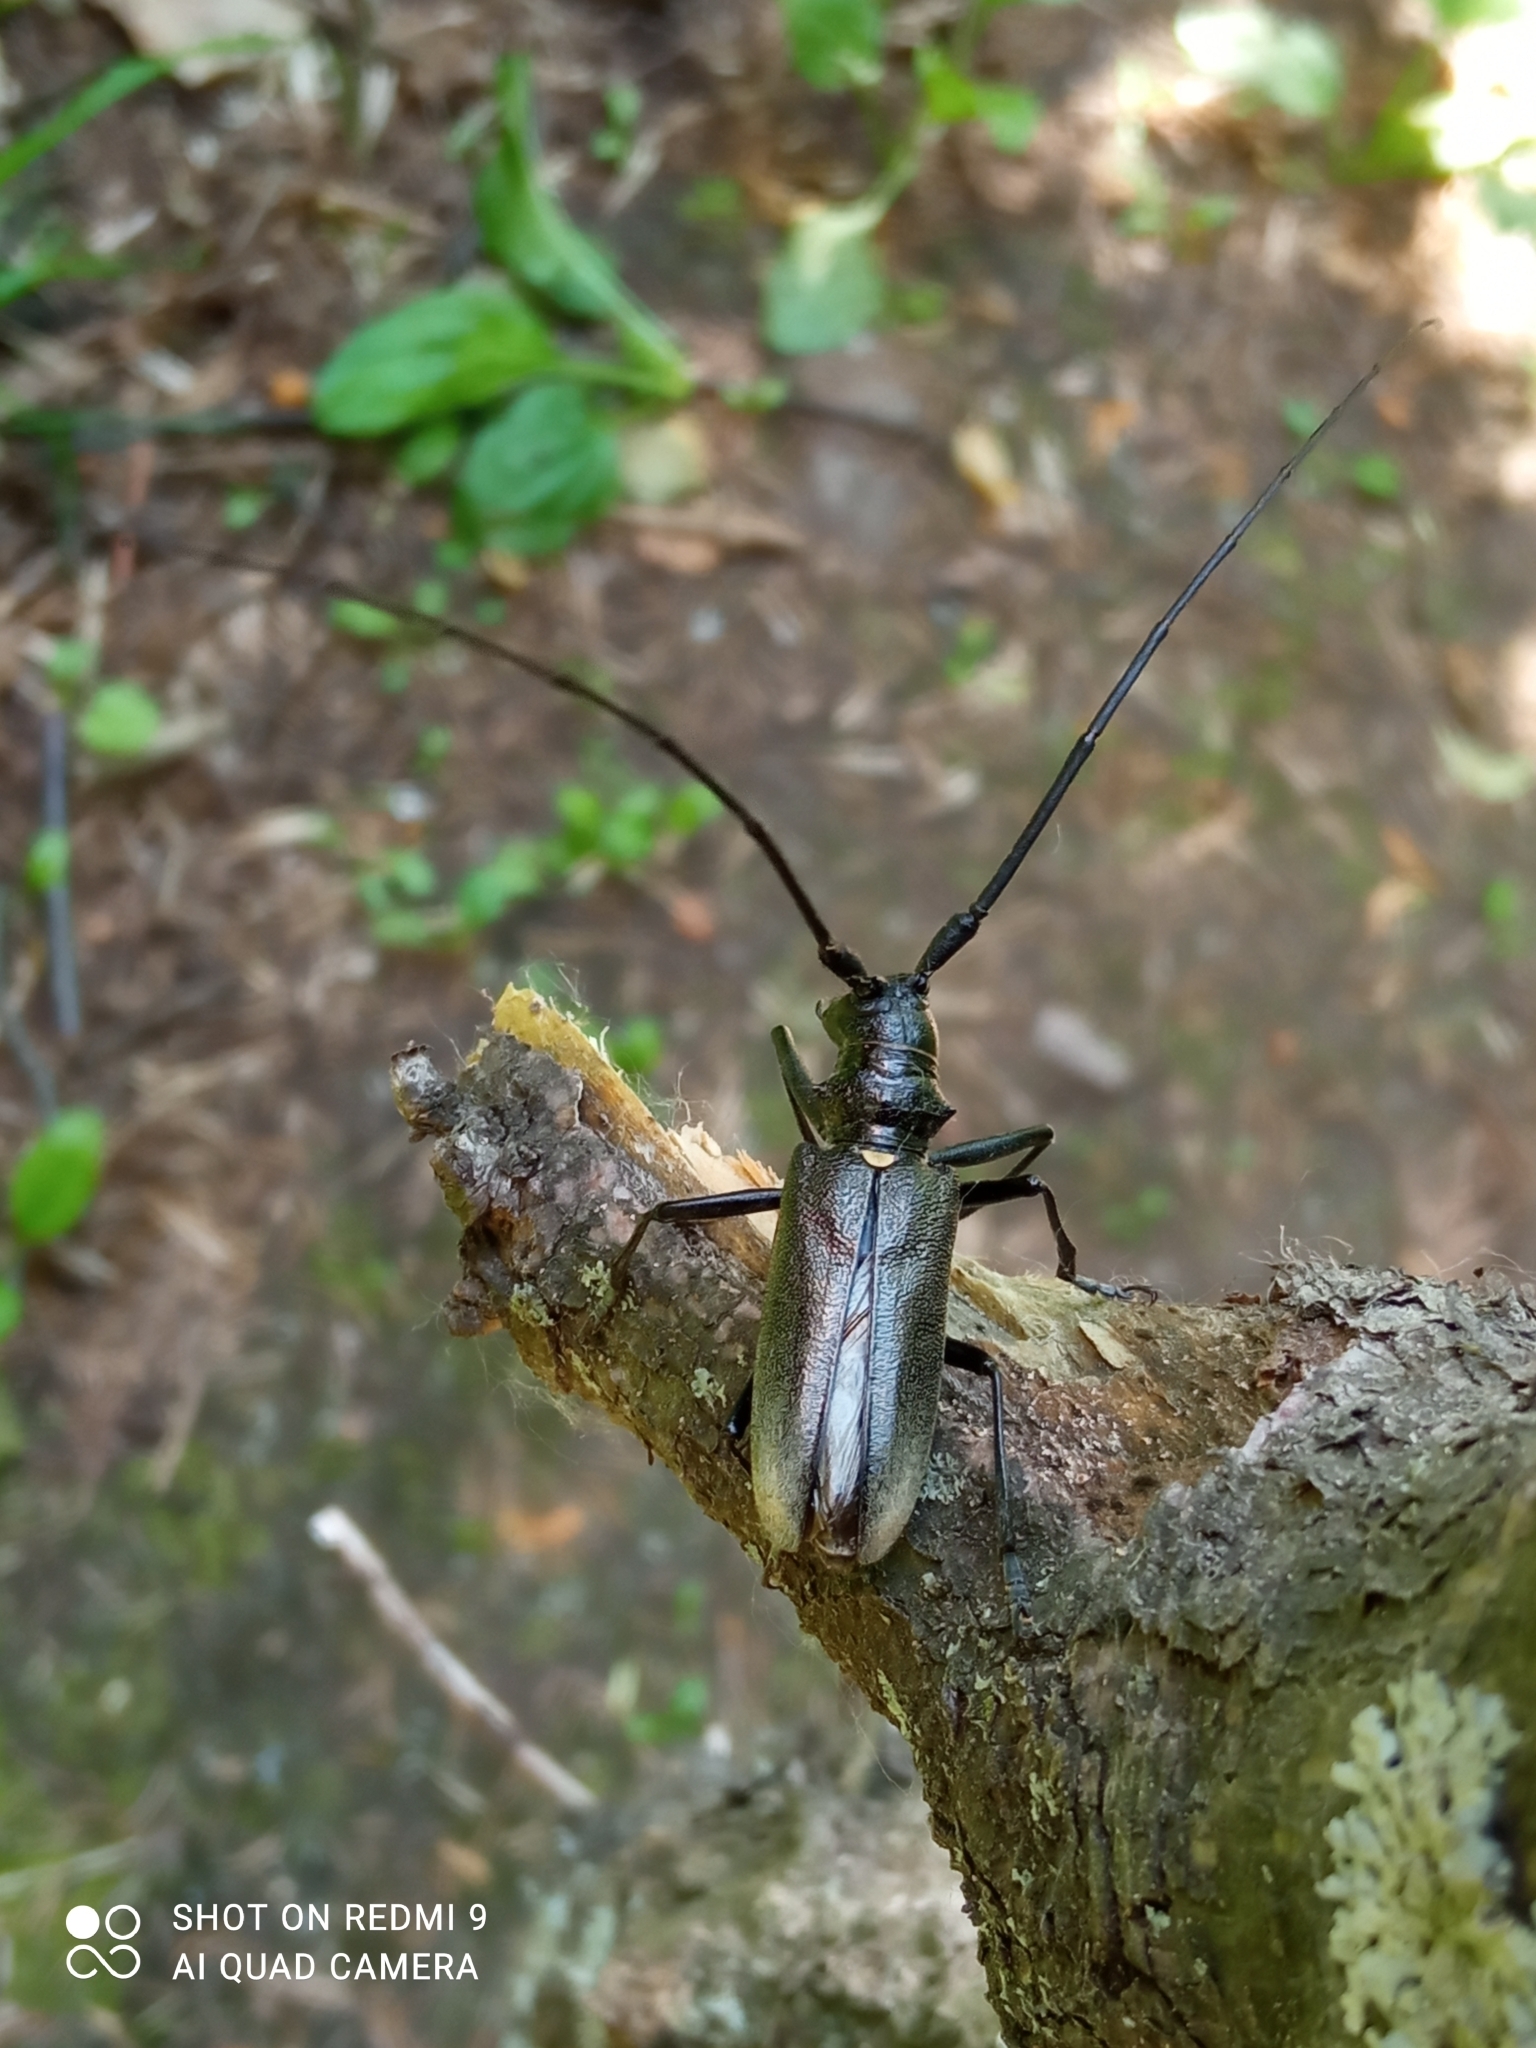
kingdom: Animalia
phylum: Arthropoda
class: Insecta
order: Coleoptera
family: Cerambycidae
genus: Monochamus
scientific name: Monochamus urussovii
